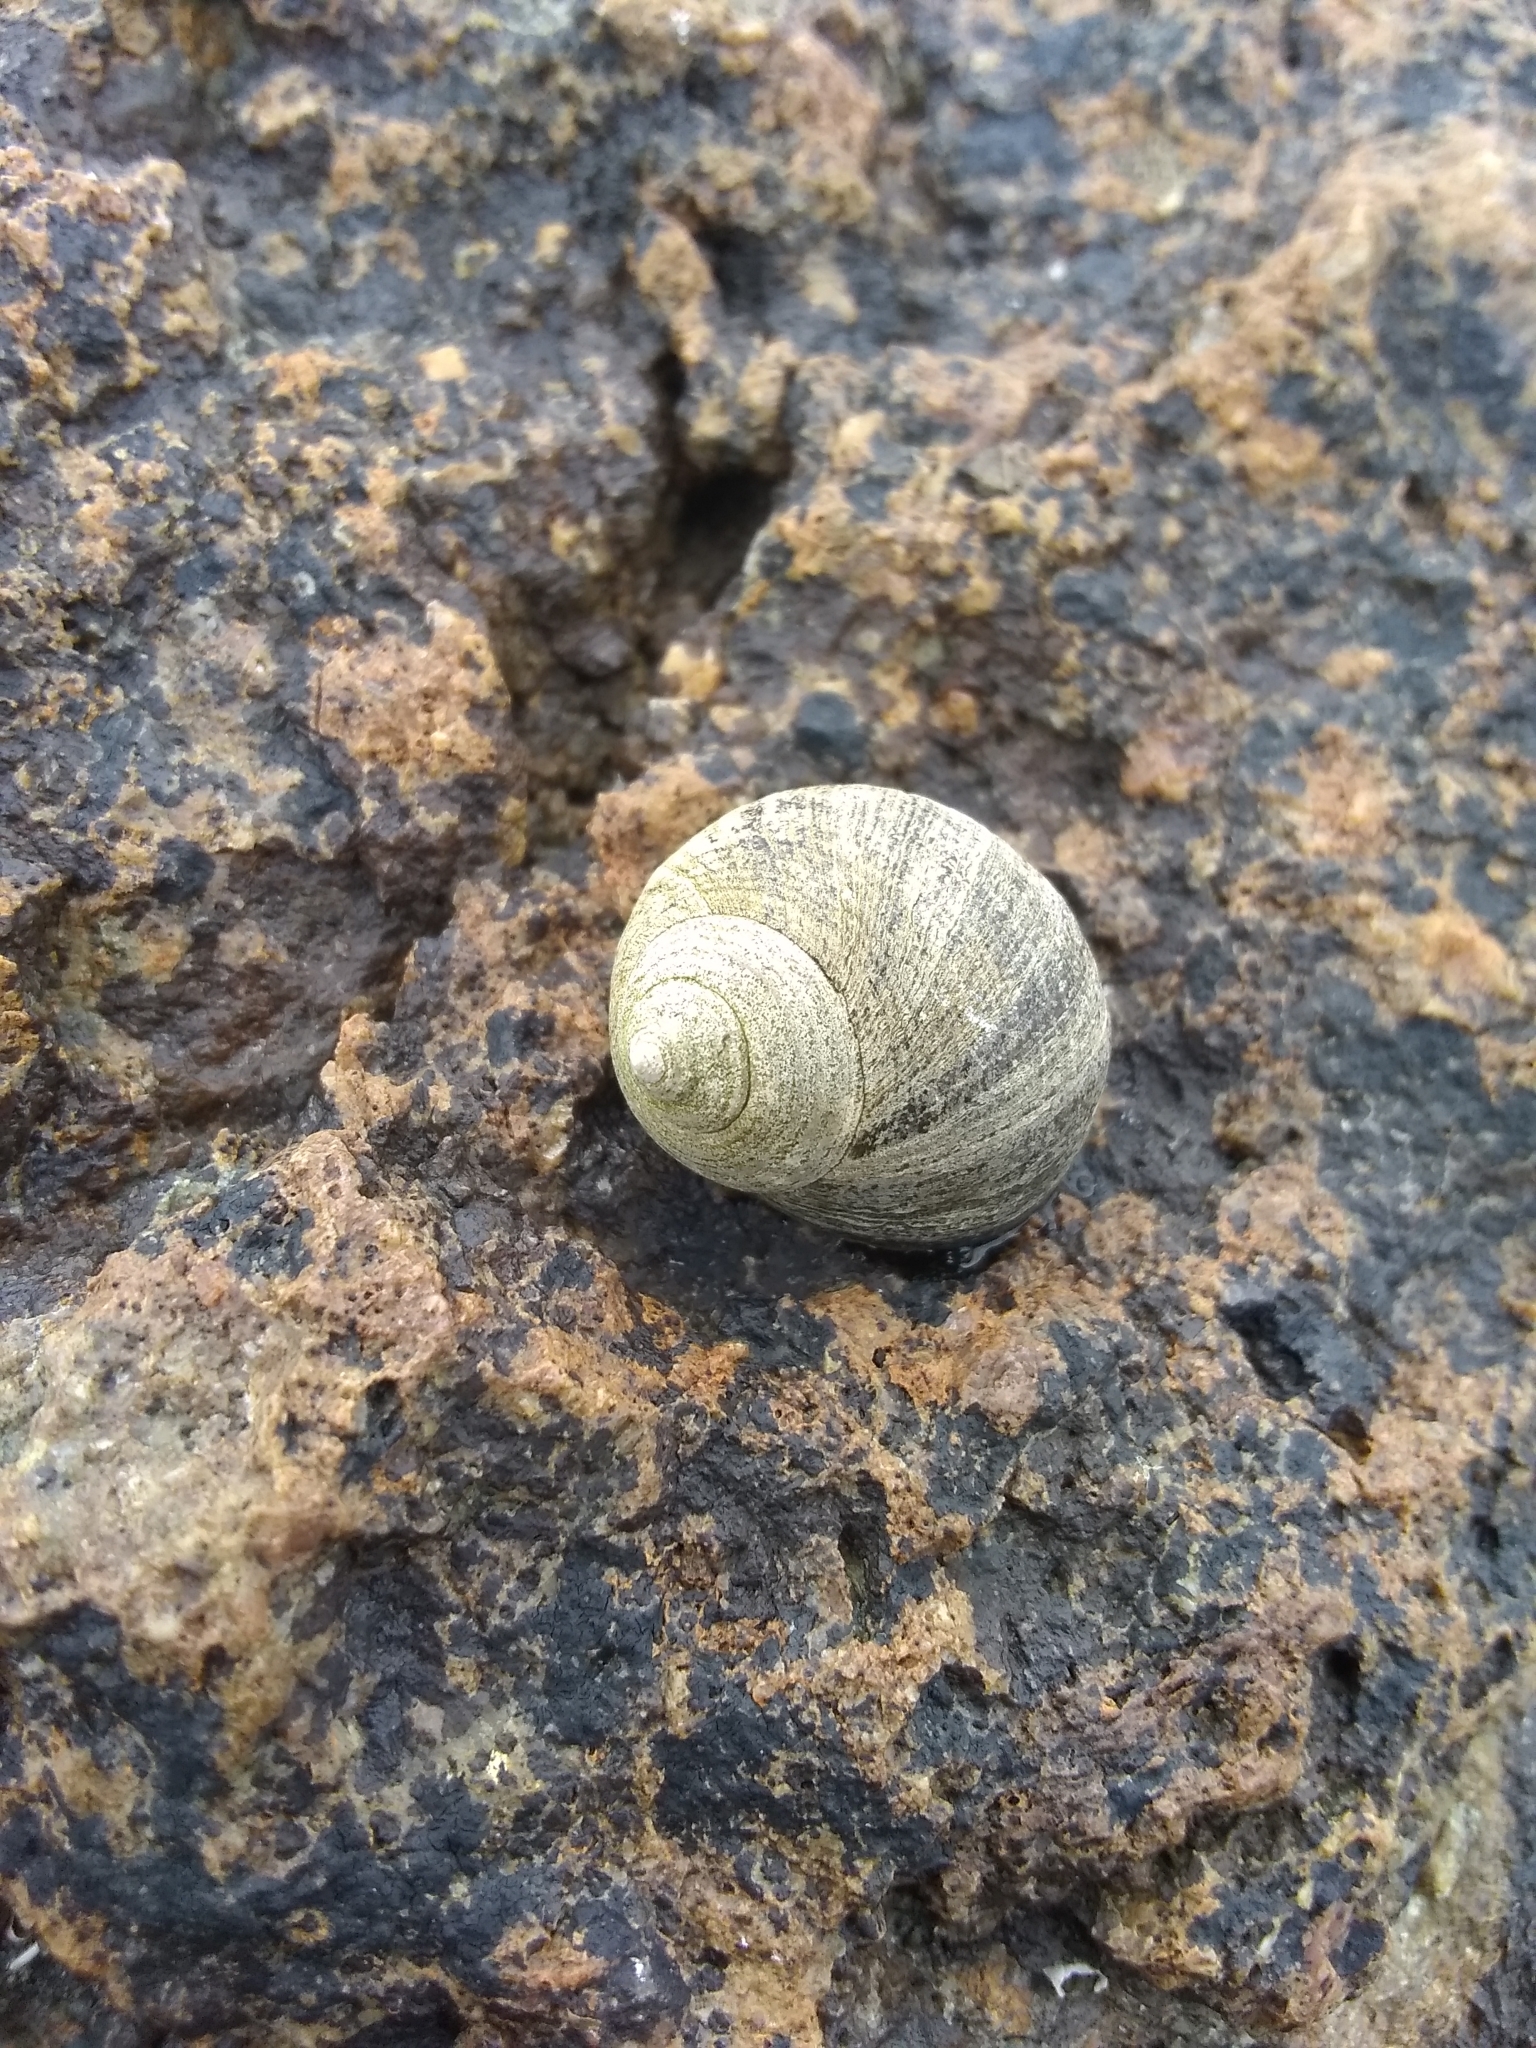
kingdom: Animalia
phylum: Mollusca
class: Gastropoda
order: Littorinimorpha
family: Littorinidae
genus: Littorina
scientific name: Littorina littorea
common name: Common periwinkle
